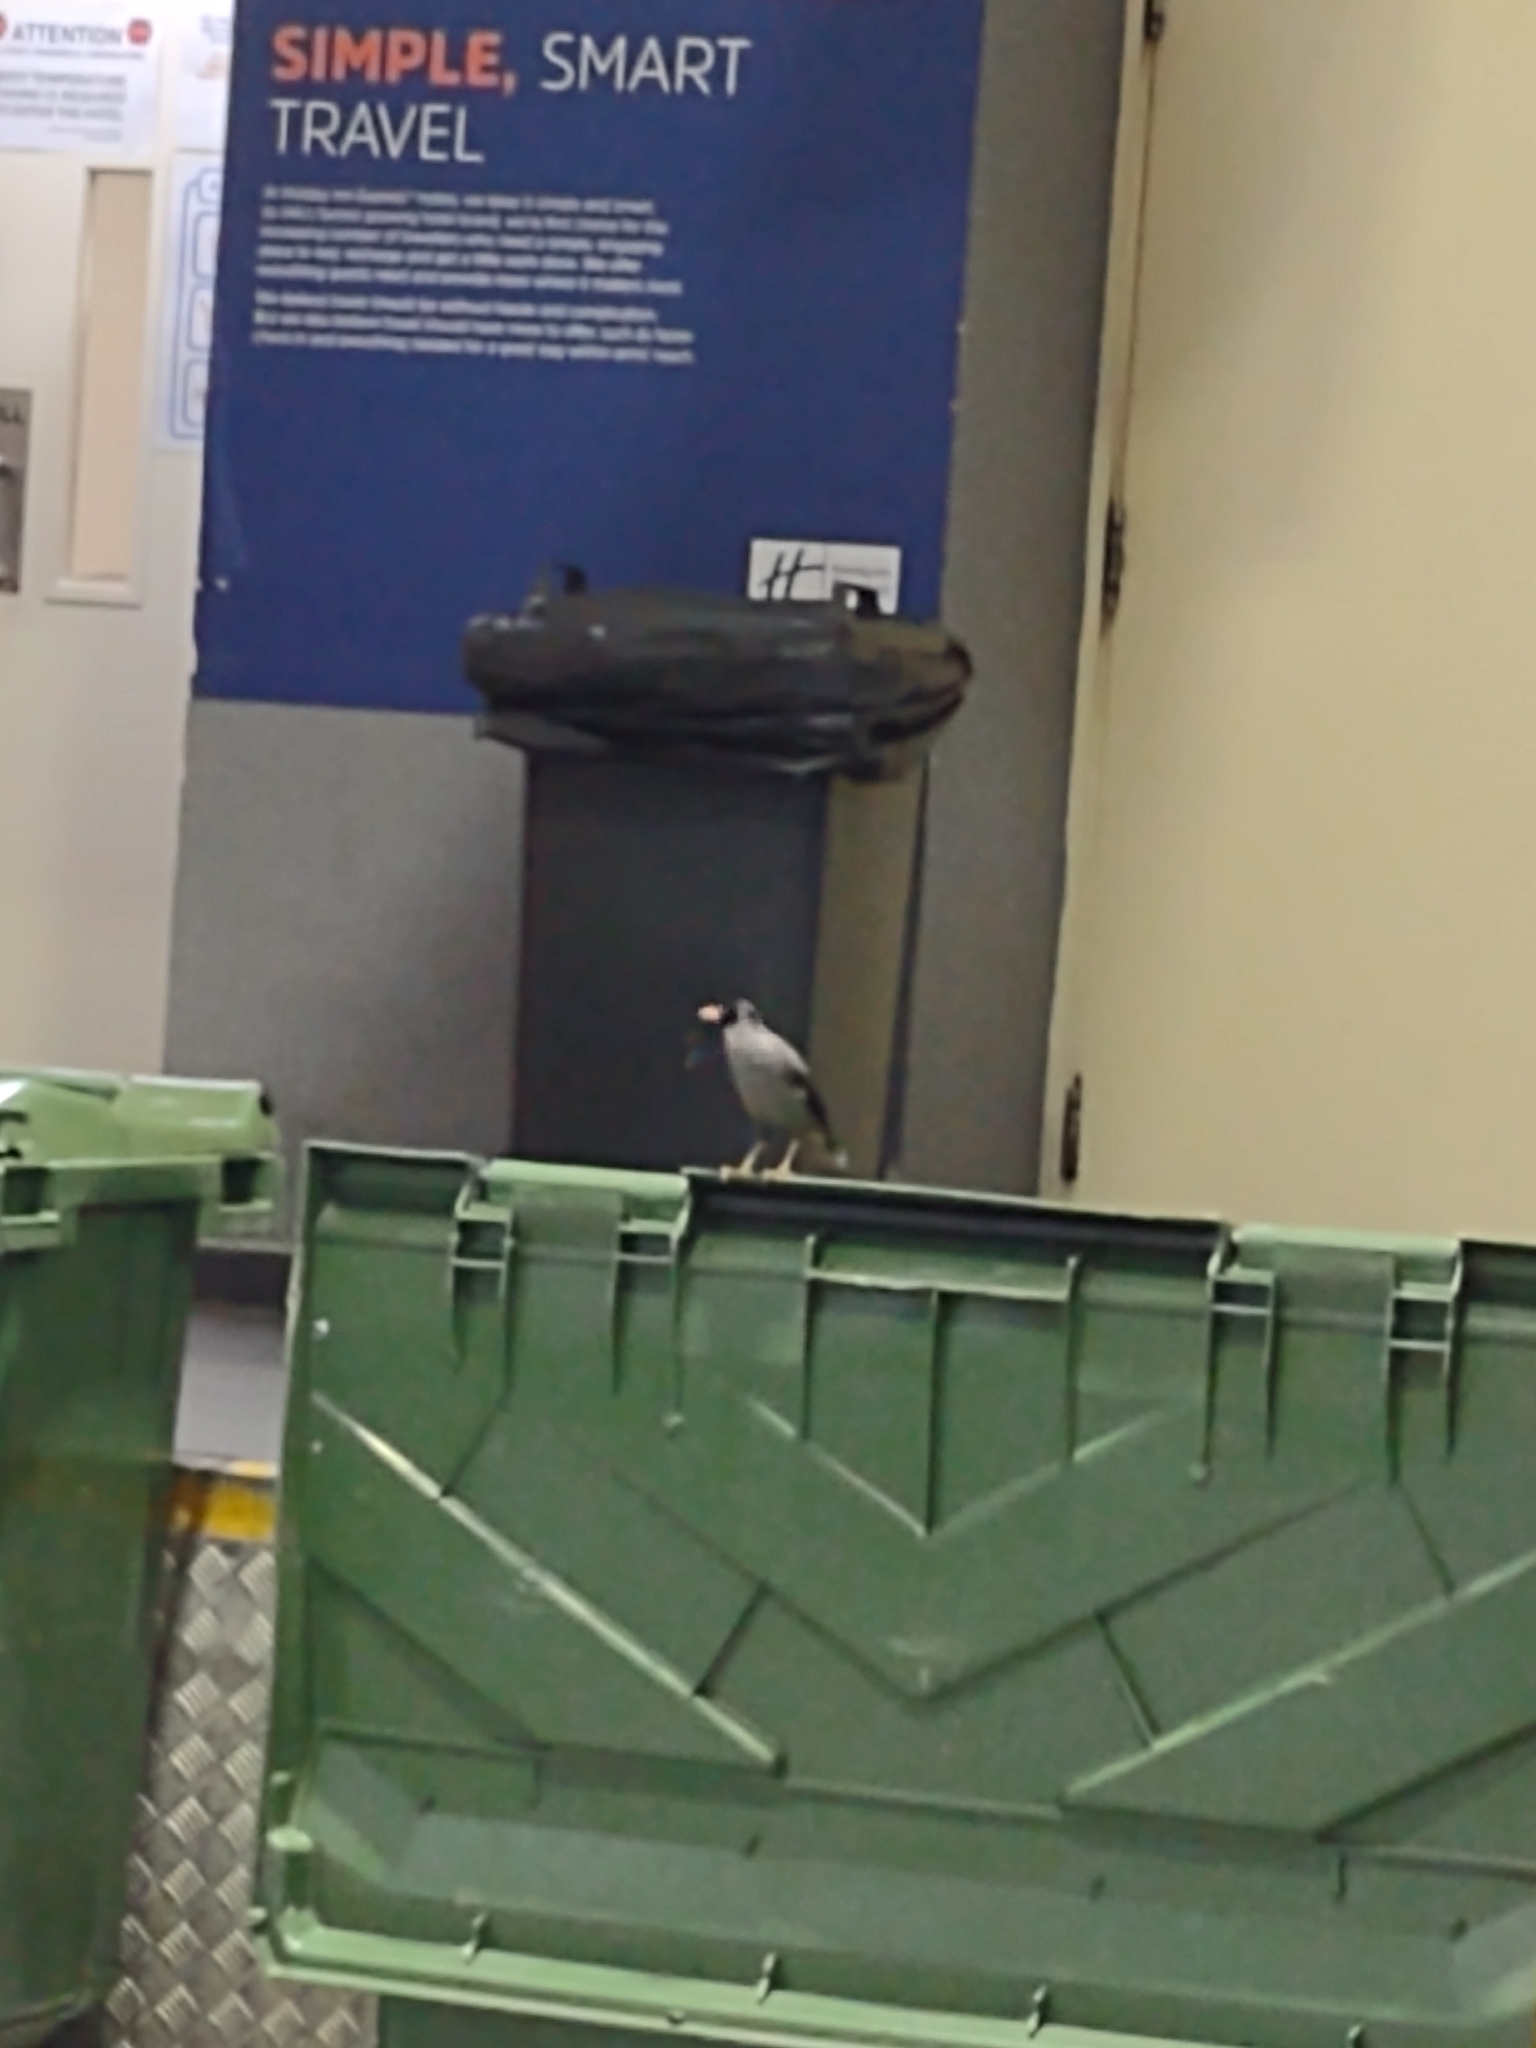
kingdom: Animalia
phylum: Chordata
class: Aves
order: Passeriformes
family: Sturnidae
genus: Acridotheres
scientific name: Acridotheres javanicus
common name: Javan myna
